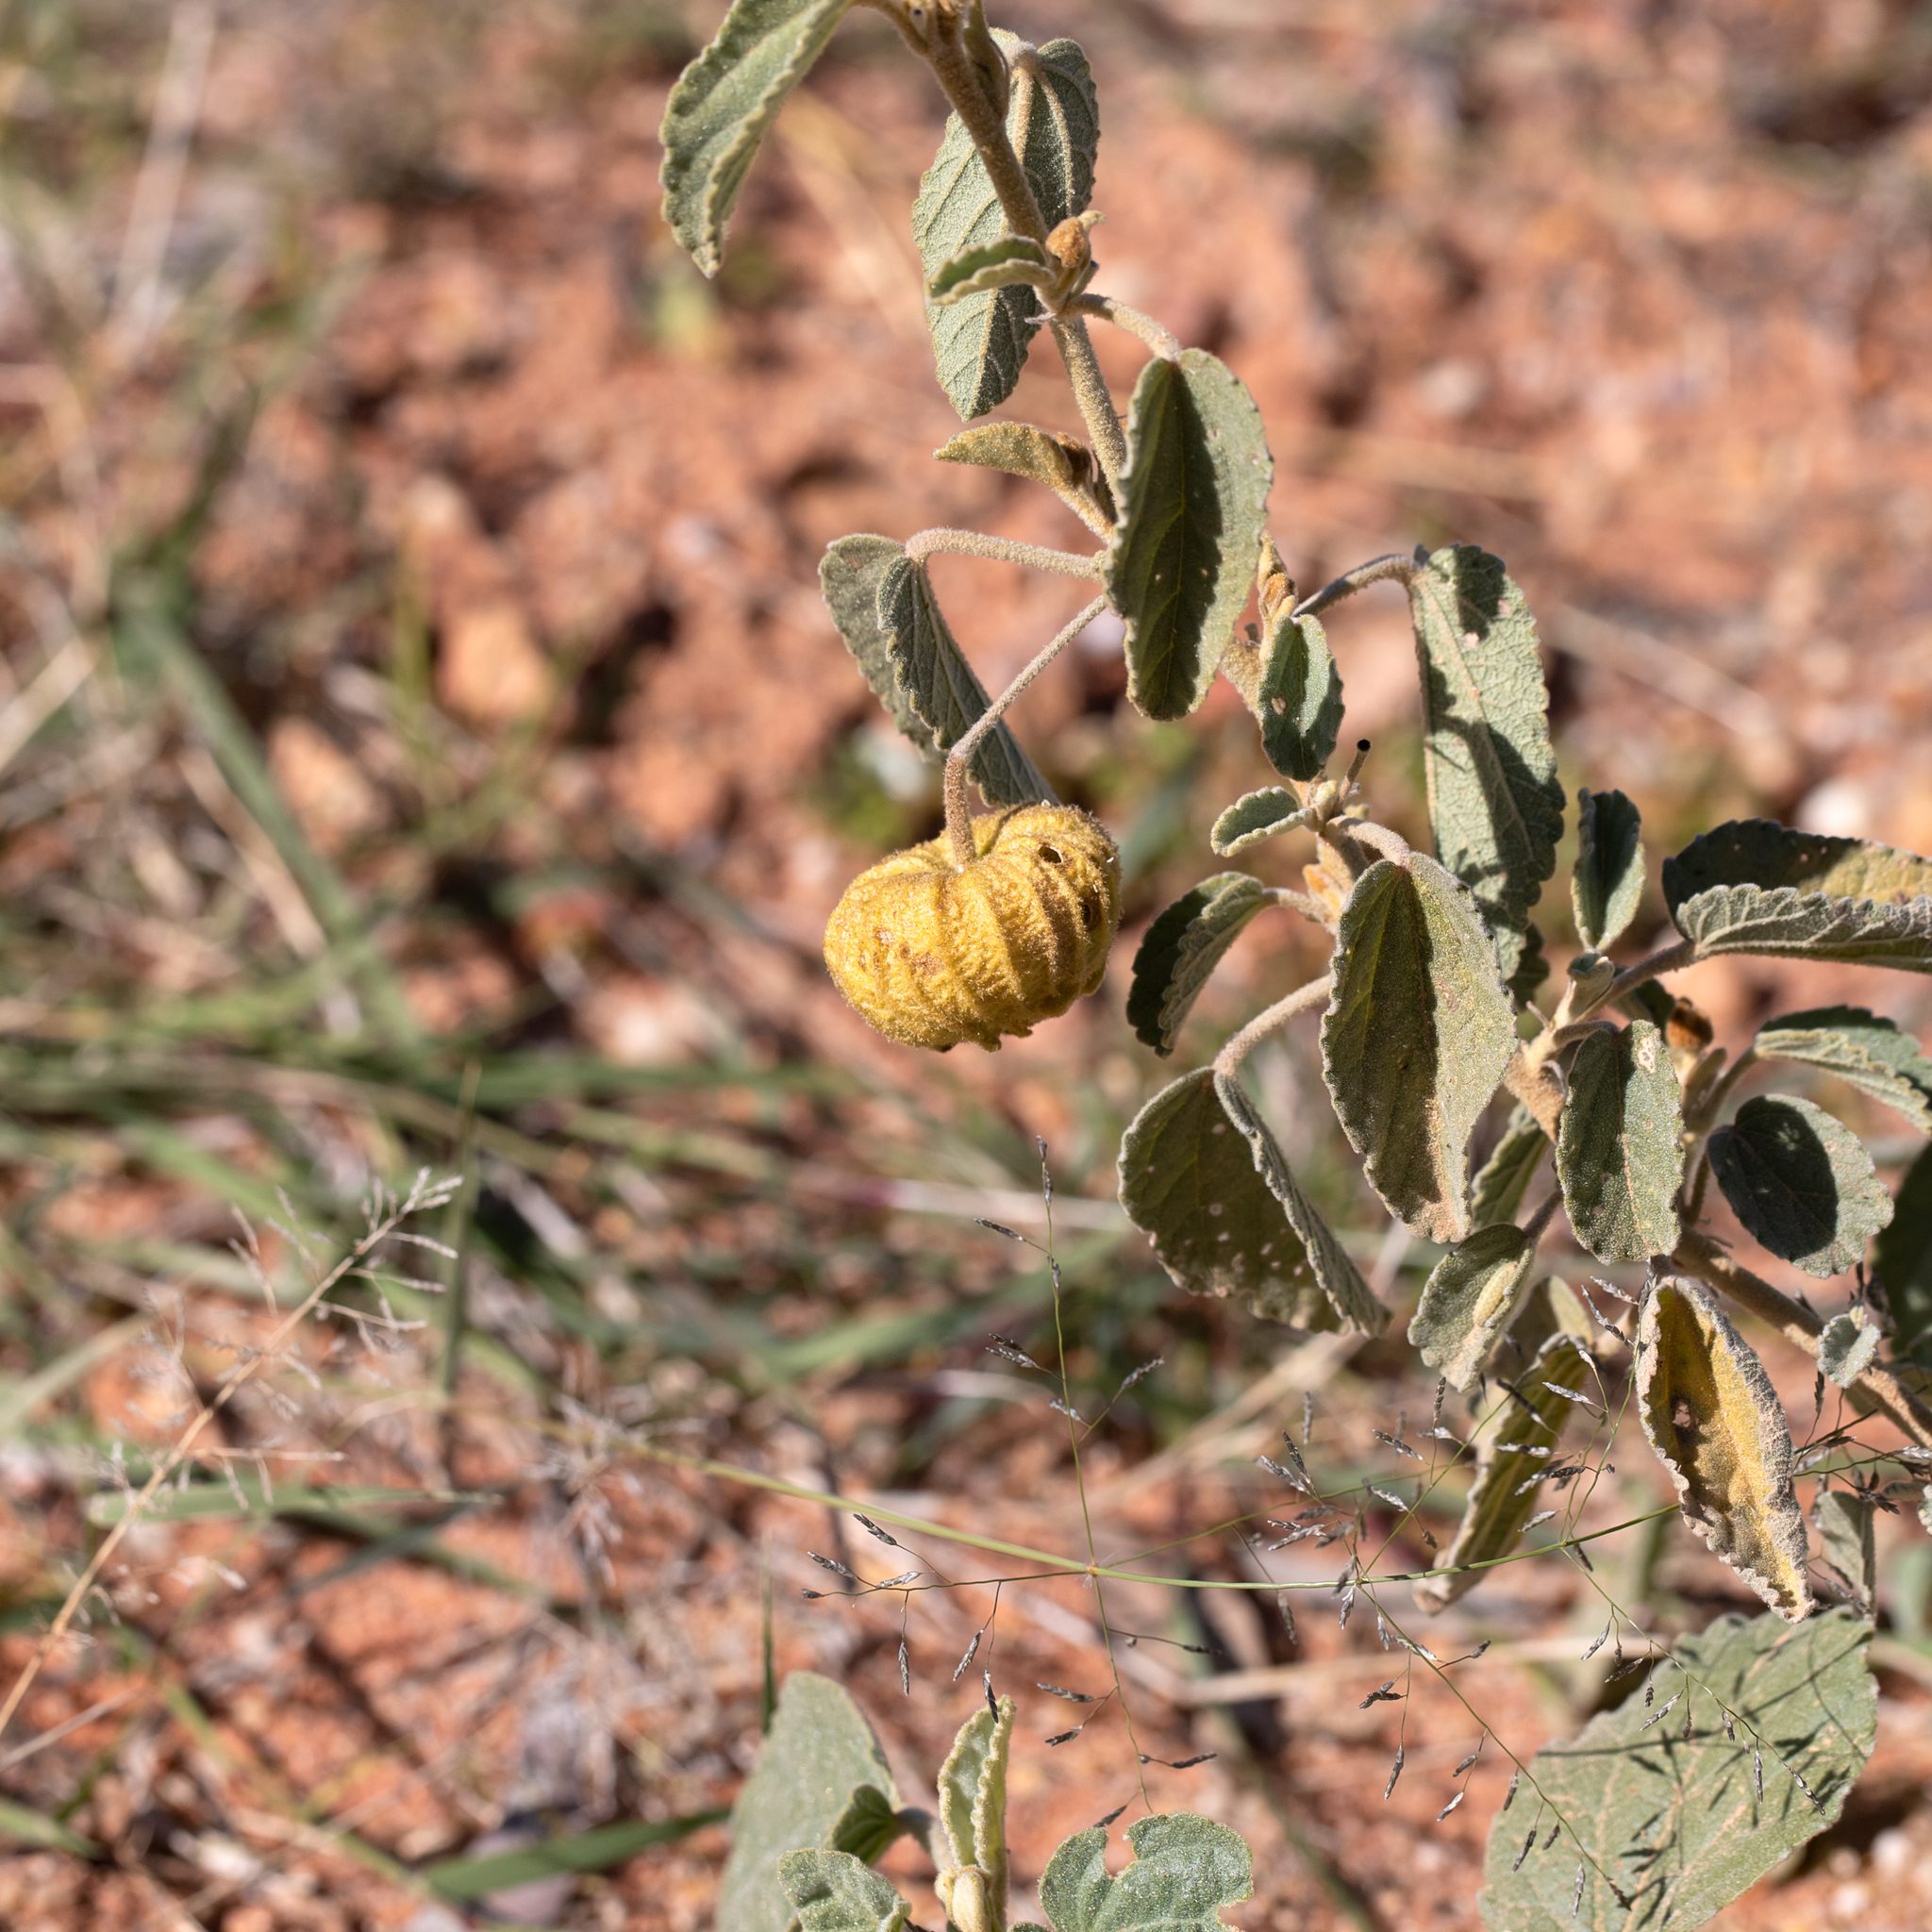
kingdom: Plantae
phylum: Tracheophyta
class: Magnoliopsida
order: Malvales
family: Malvaceae
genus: Sida
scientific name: Sida platycalyx
